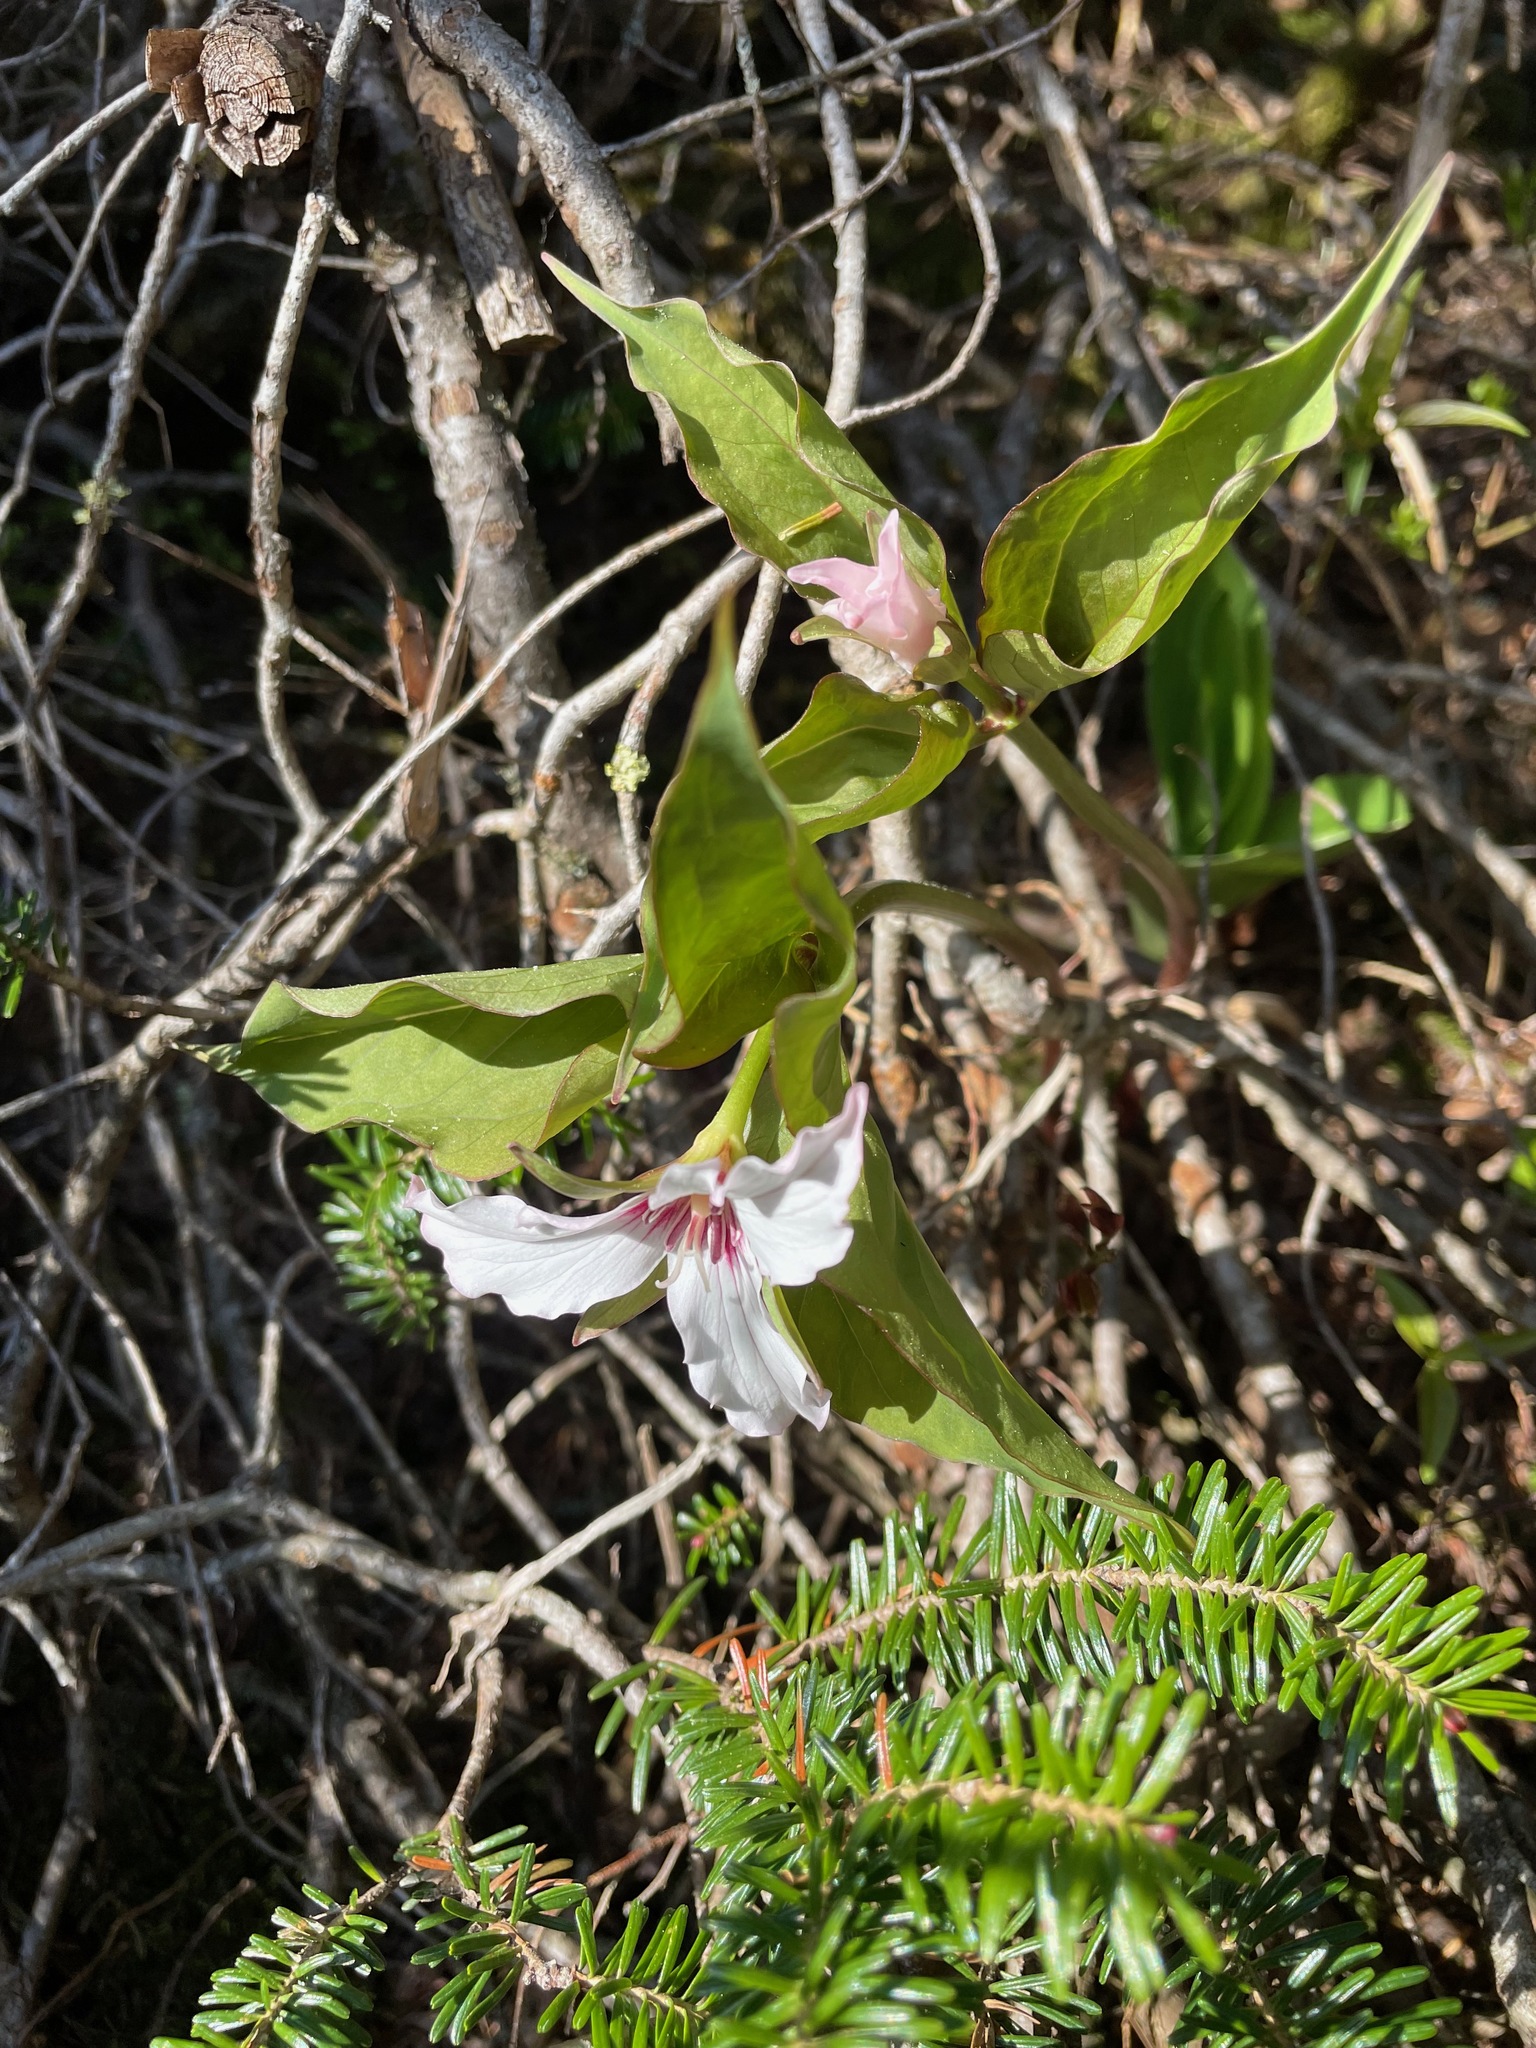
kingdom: Plantae
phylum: Tracheophyta
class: Liliopsida
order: Liliales
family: Melanthiaceae
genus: Trillium
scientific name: Trillium undulatum
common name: Paint trillium
